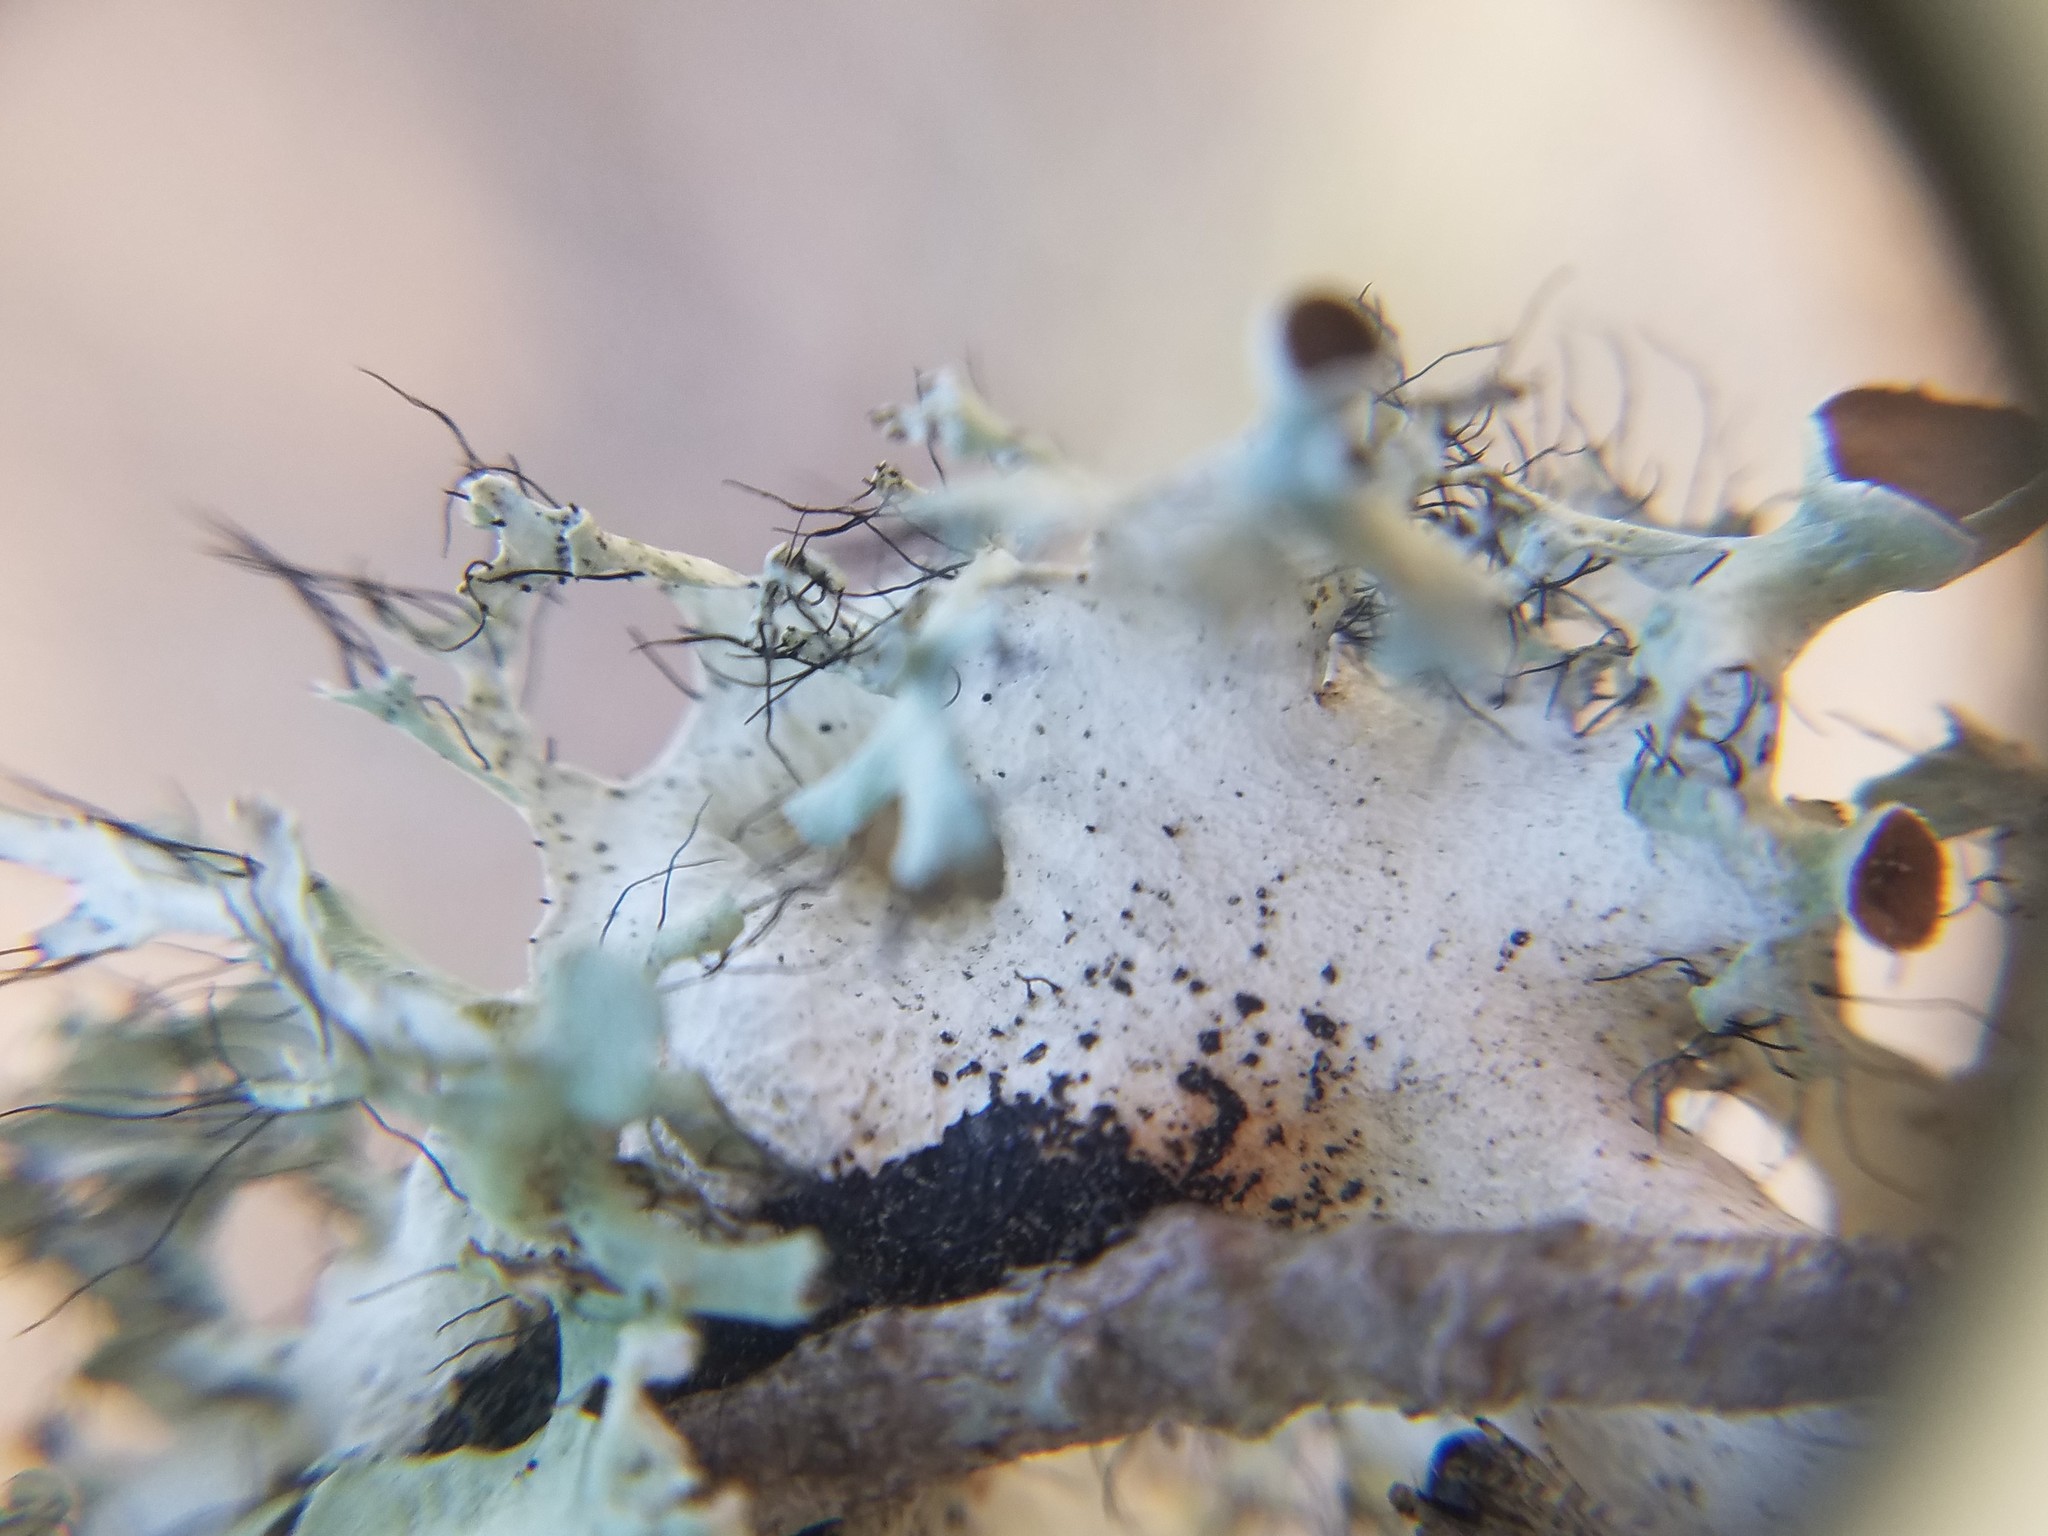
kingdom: Fungi
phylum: Ascomycota
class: Lecanoromycetes
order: Lecanorales
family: Parmeliaceae
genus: Parmotrema
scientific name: Parmotrema perforatum
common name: Perforated ruffle lichen
